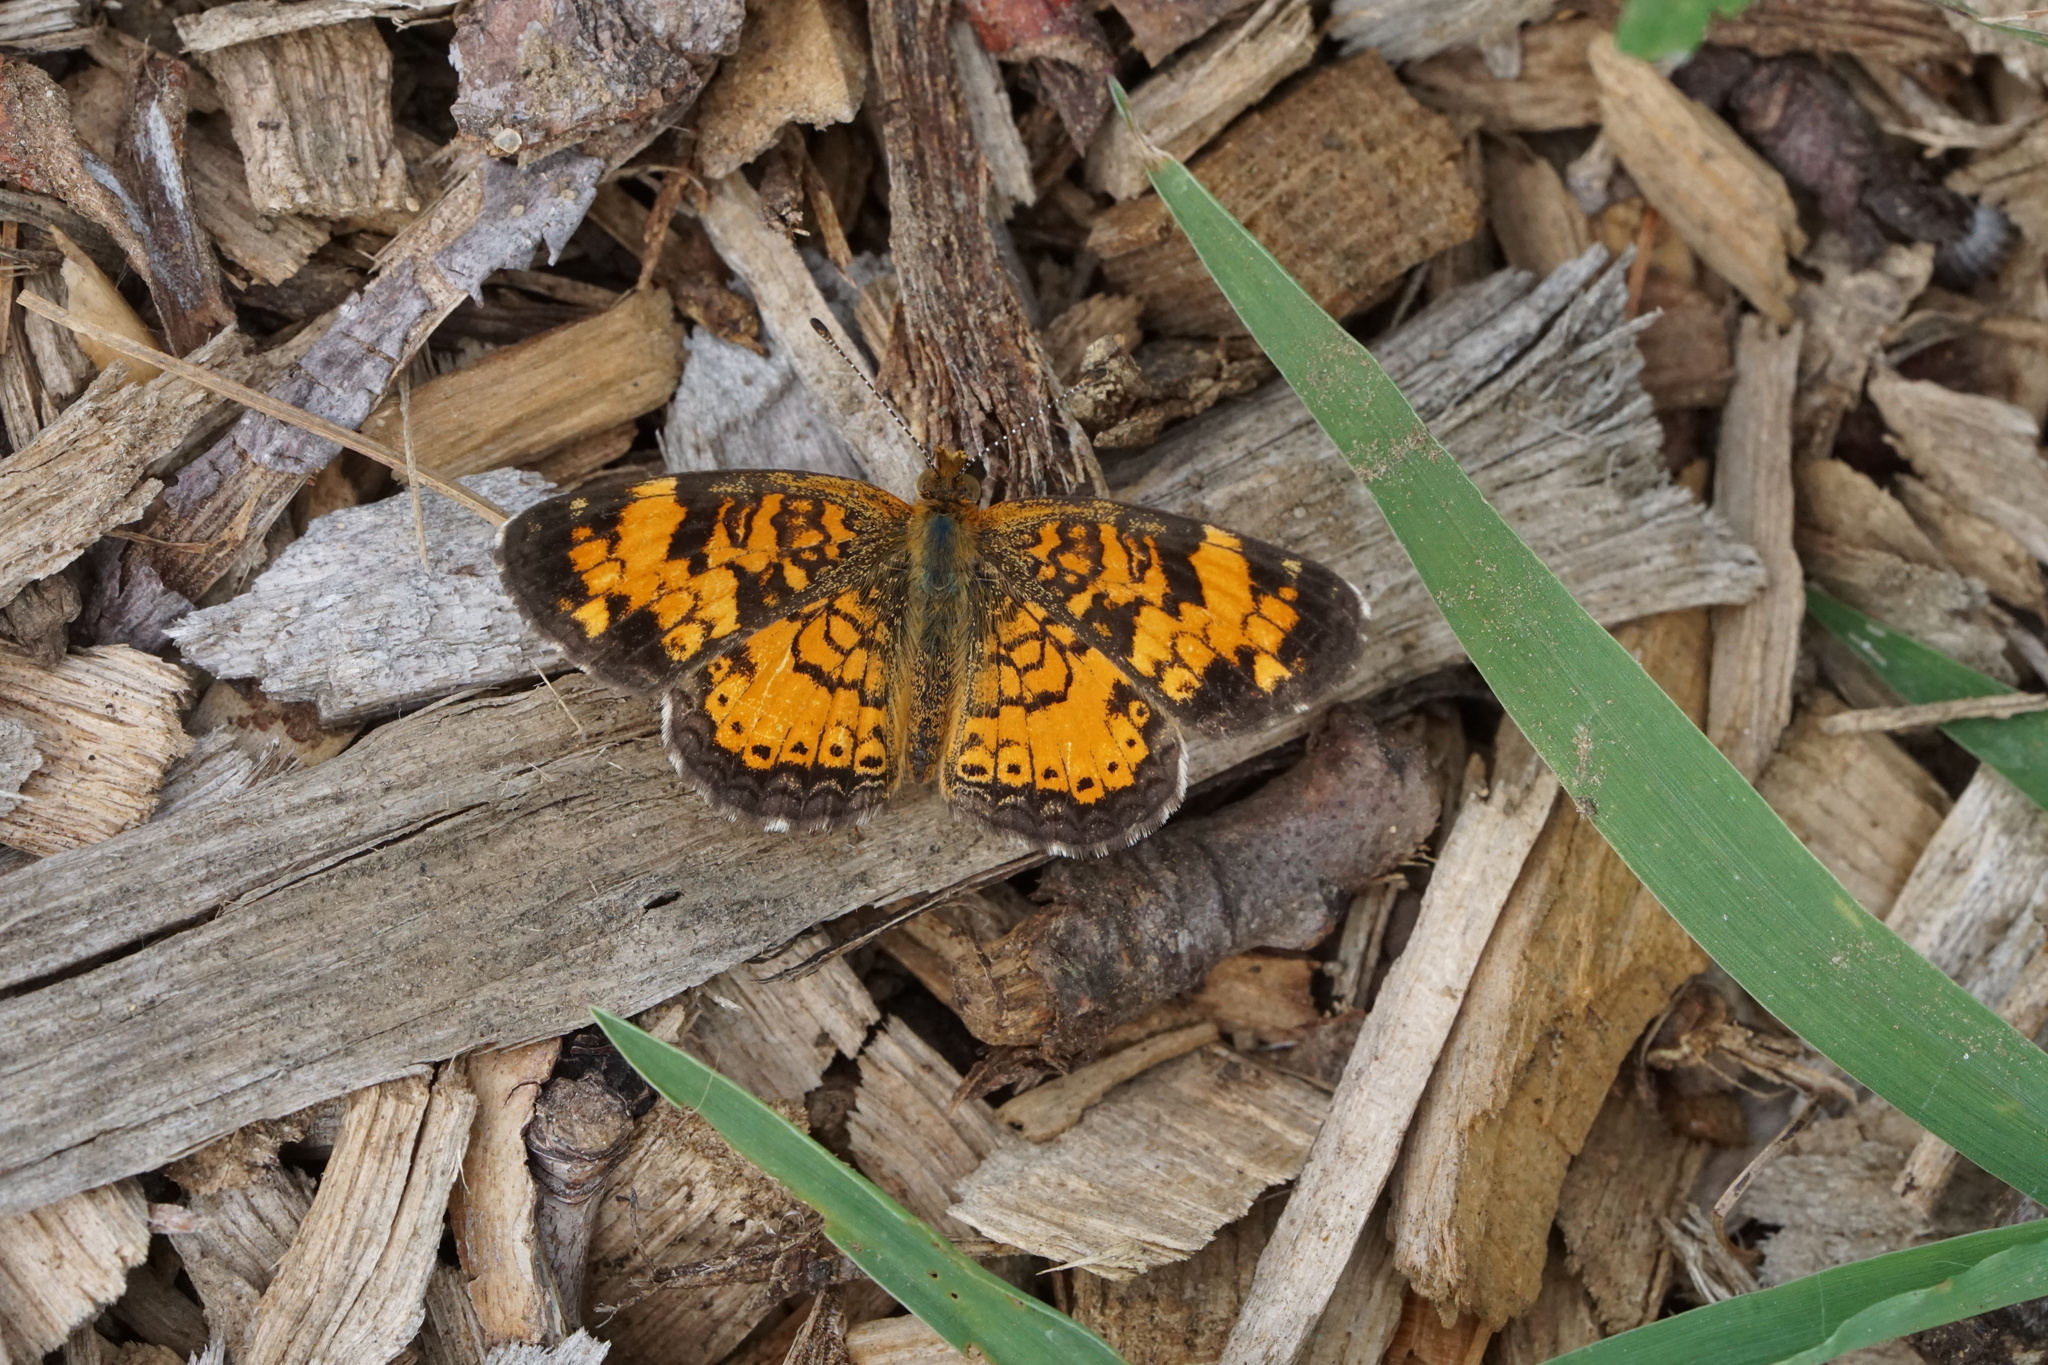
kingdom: Animalia
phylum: Arthropoda
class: Insecta
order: Lepidoptera
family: Nymphalidae
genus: Phyciodes
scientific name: Phyciodes tharos
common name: Pearl crescent
